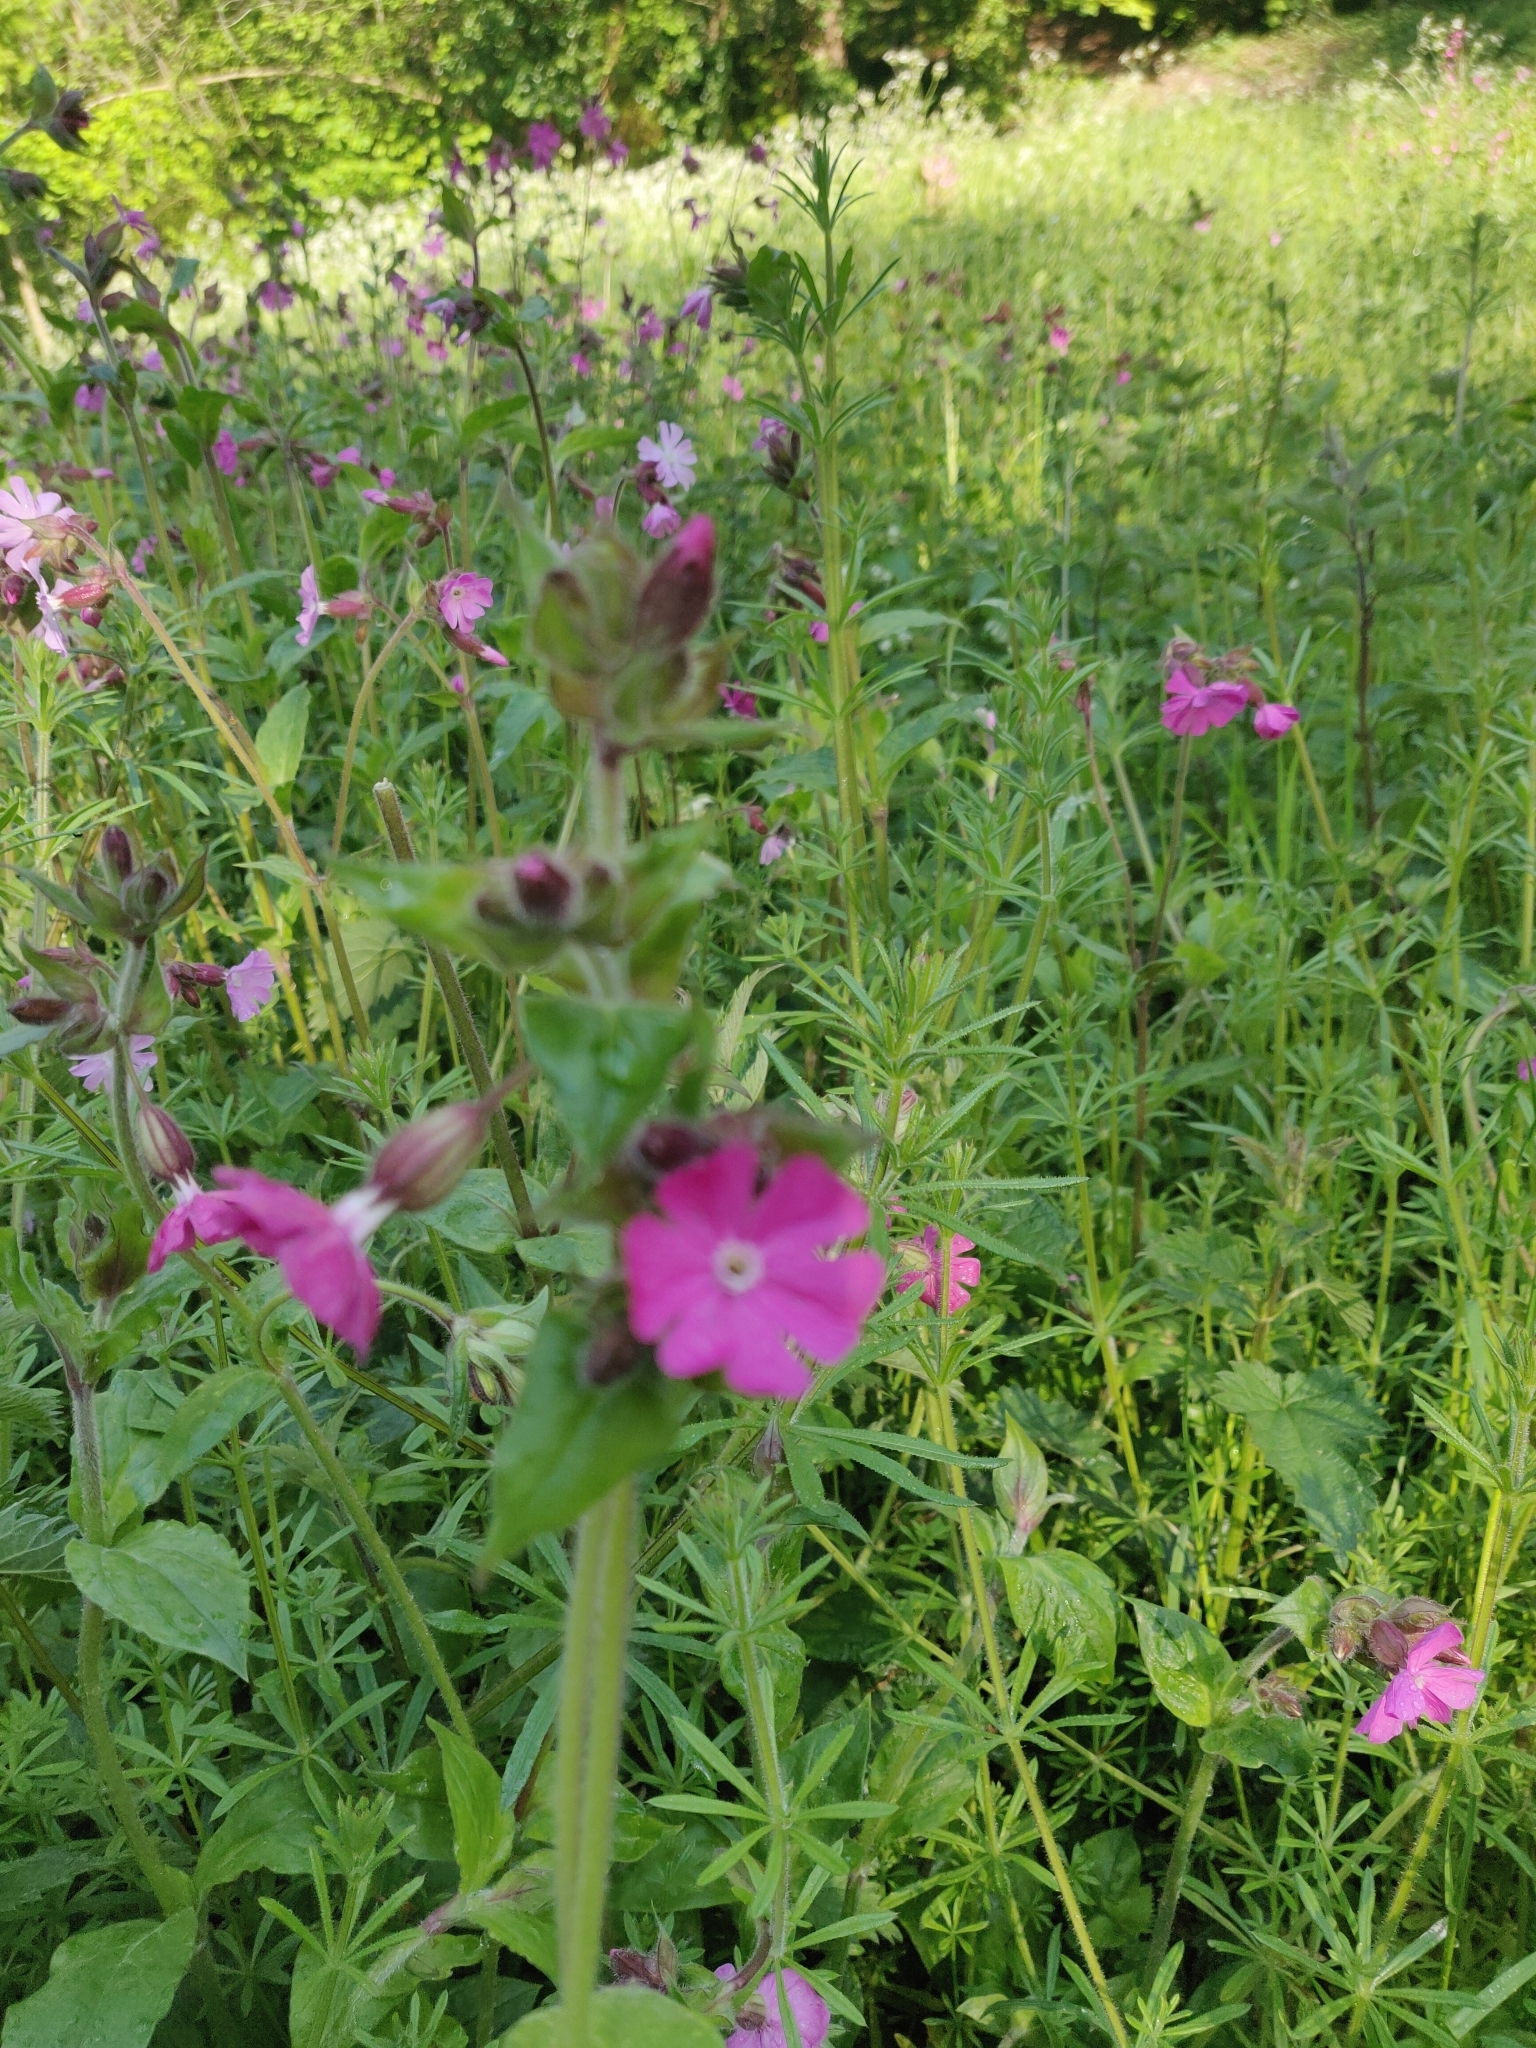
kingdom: Plantae
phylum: Tracheophyta
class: Magnoliopsida
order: Caryophyllales
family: Caryophyllaceae
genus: Silene
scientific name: Silene dioica
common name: Red campion
